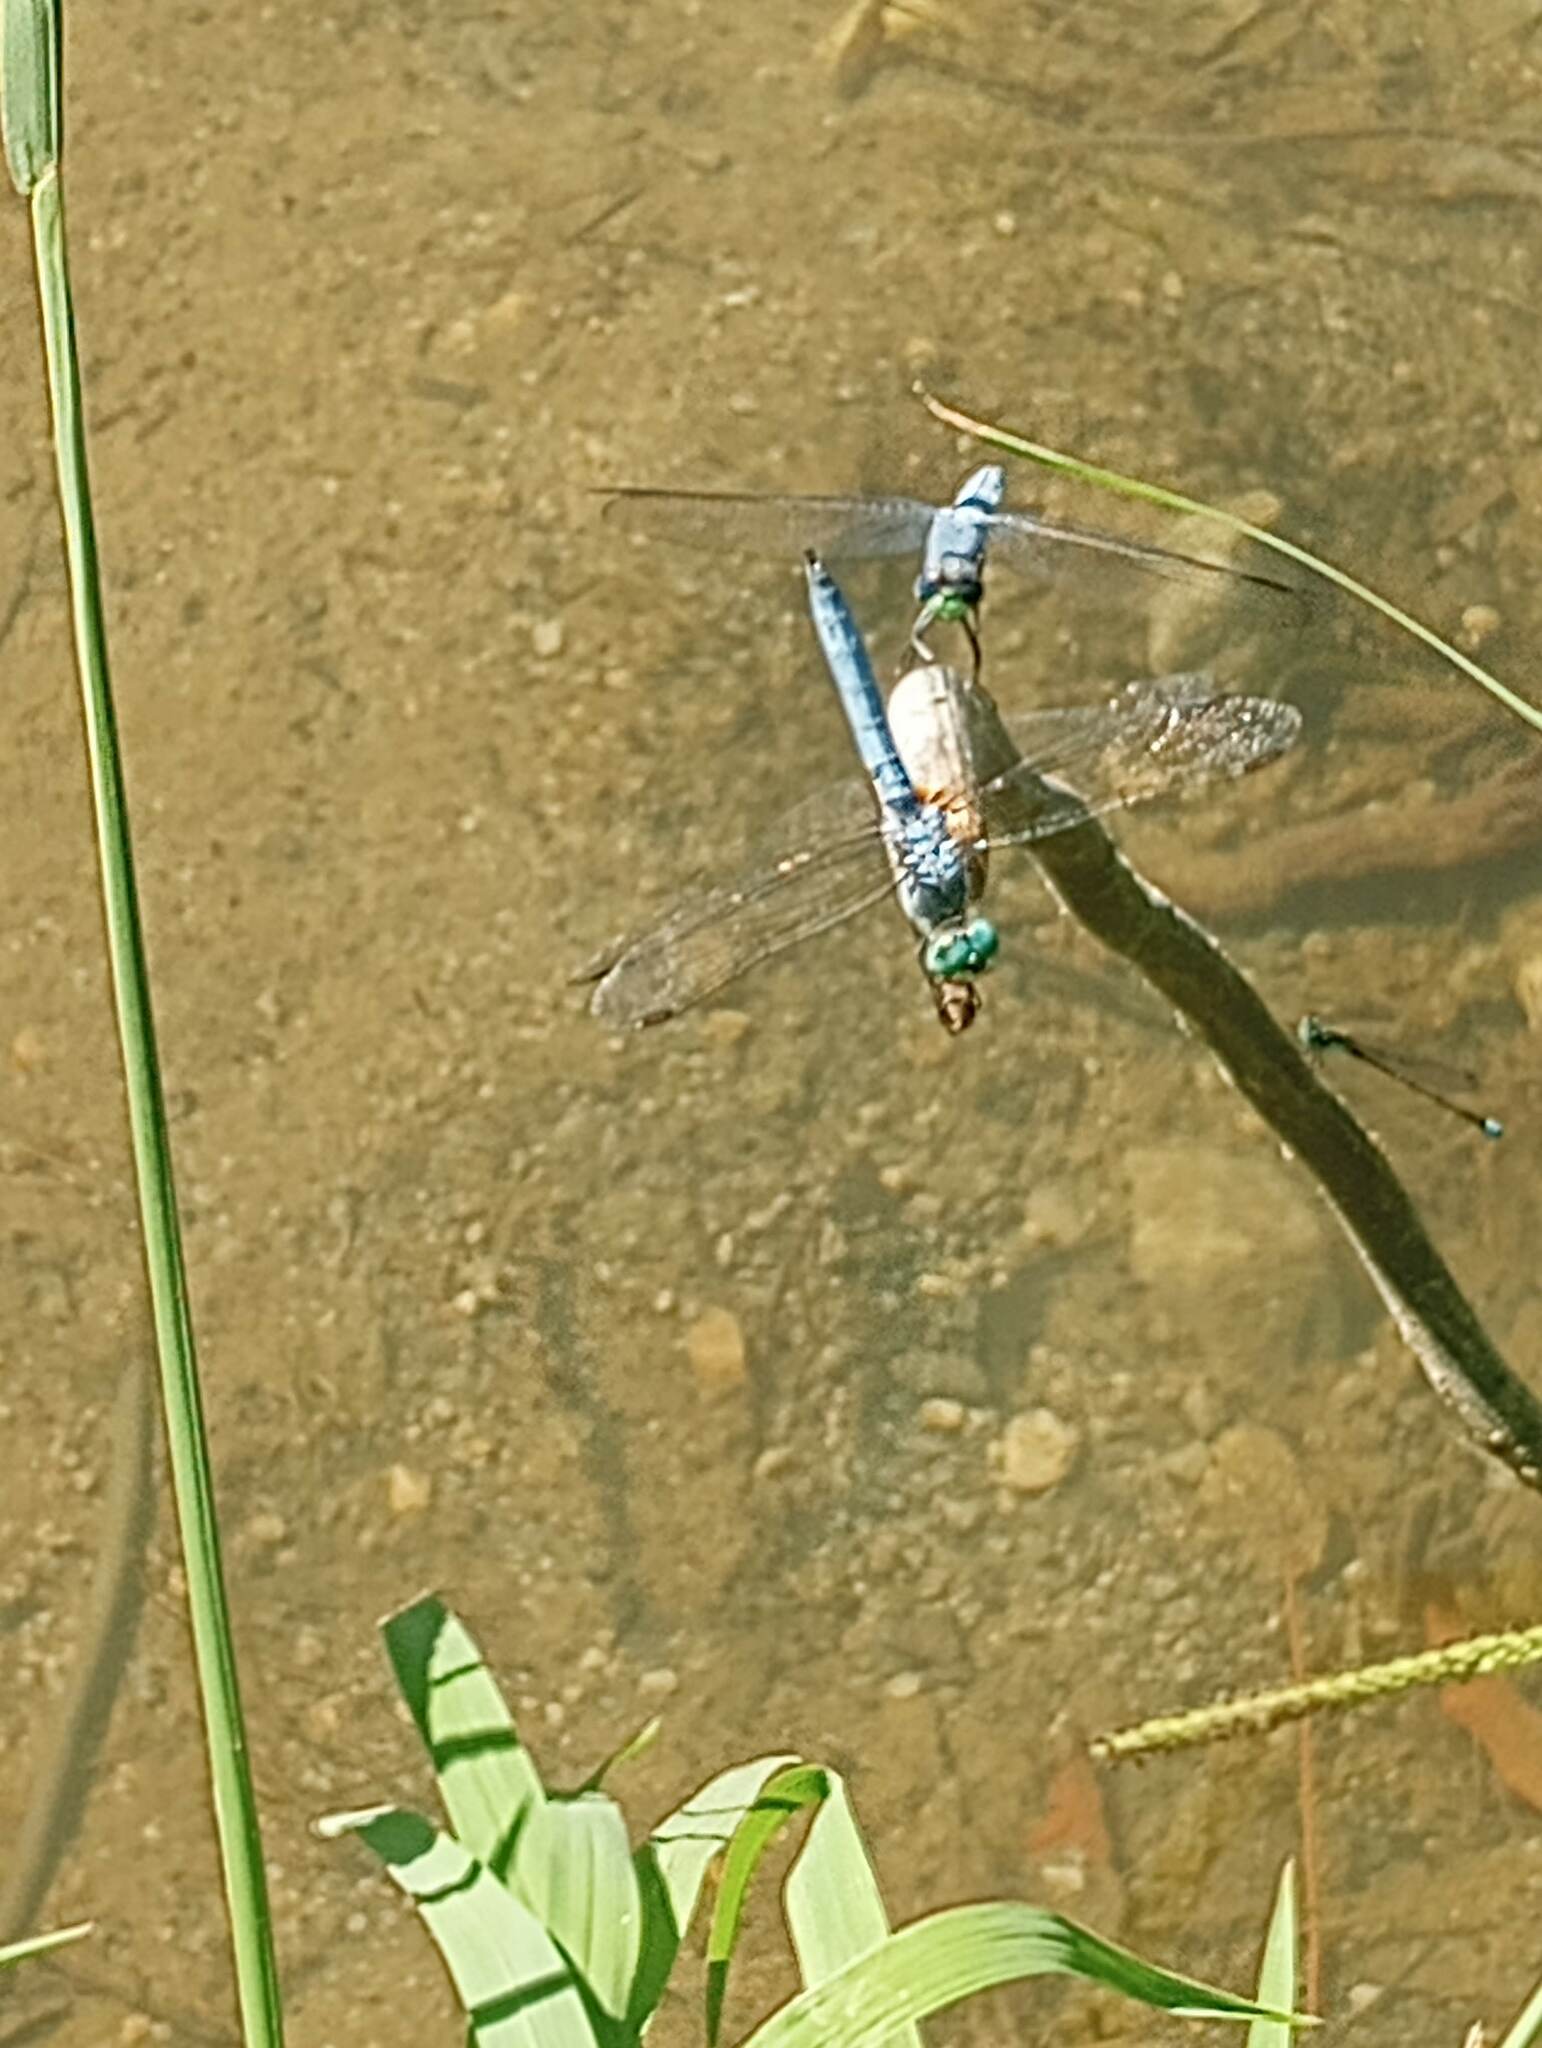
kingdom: Animalia
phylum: Arthropoda
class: Insecta
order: Odonata
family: Libellulidae
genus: Pachydiplax
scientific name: Pachydiplax longipennis
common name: Blue dasher
